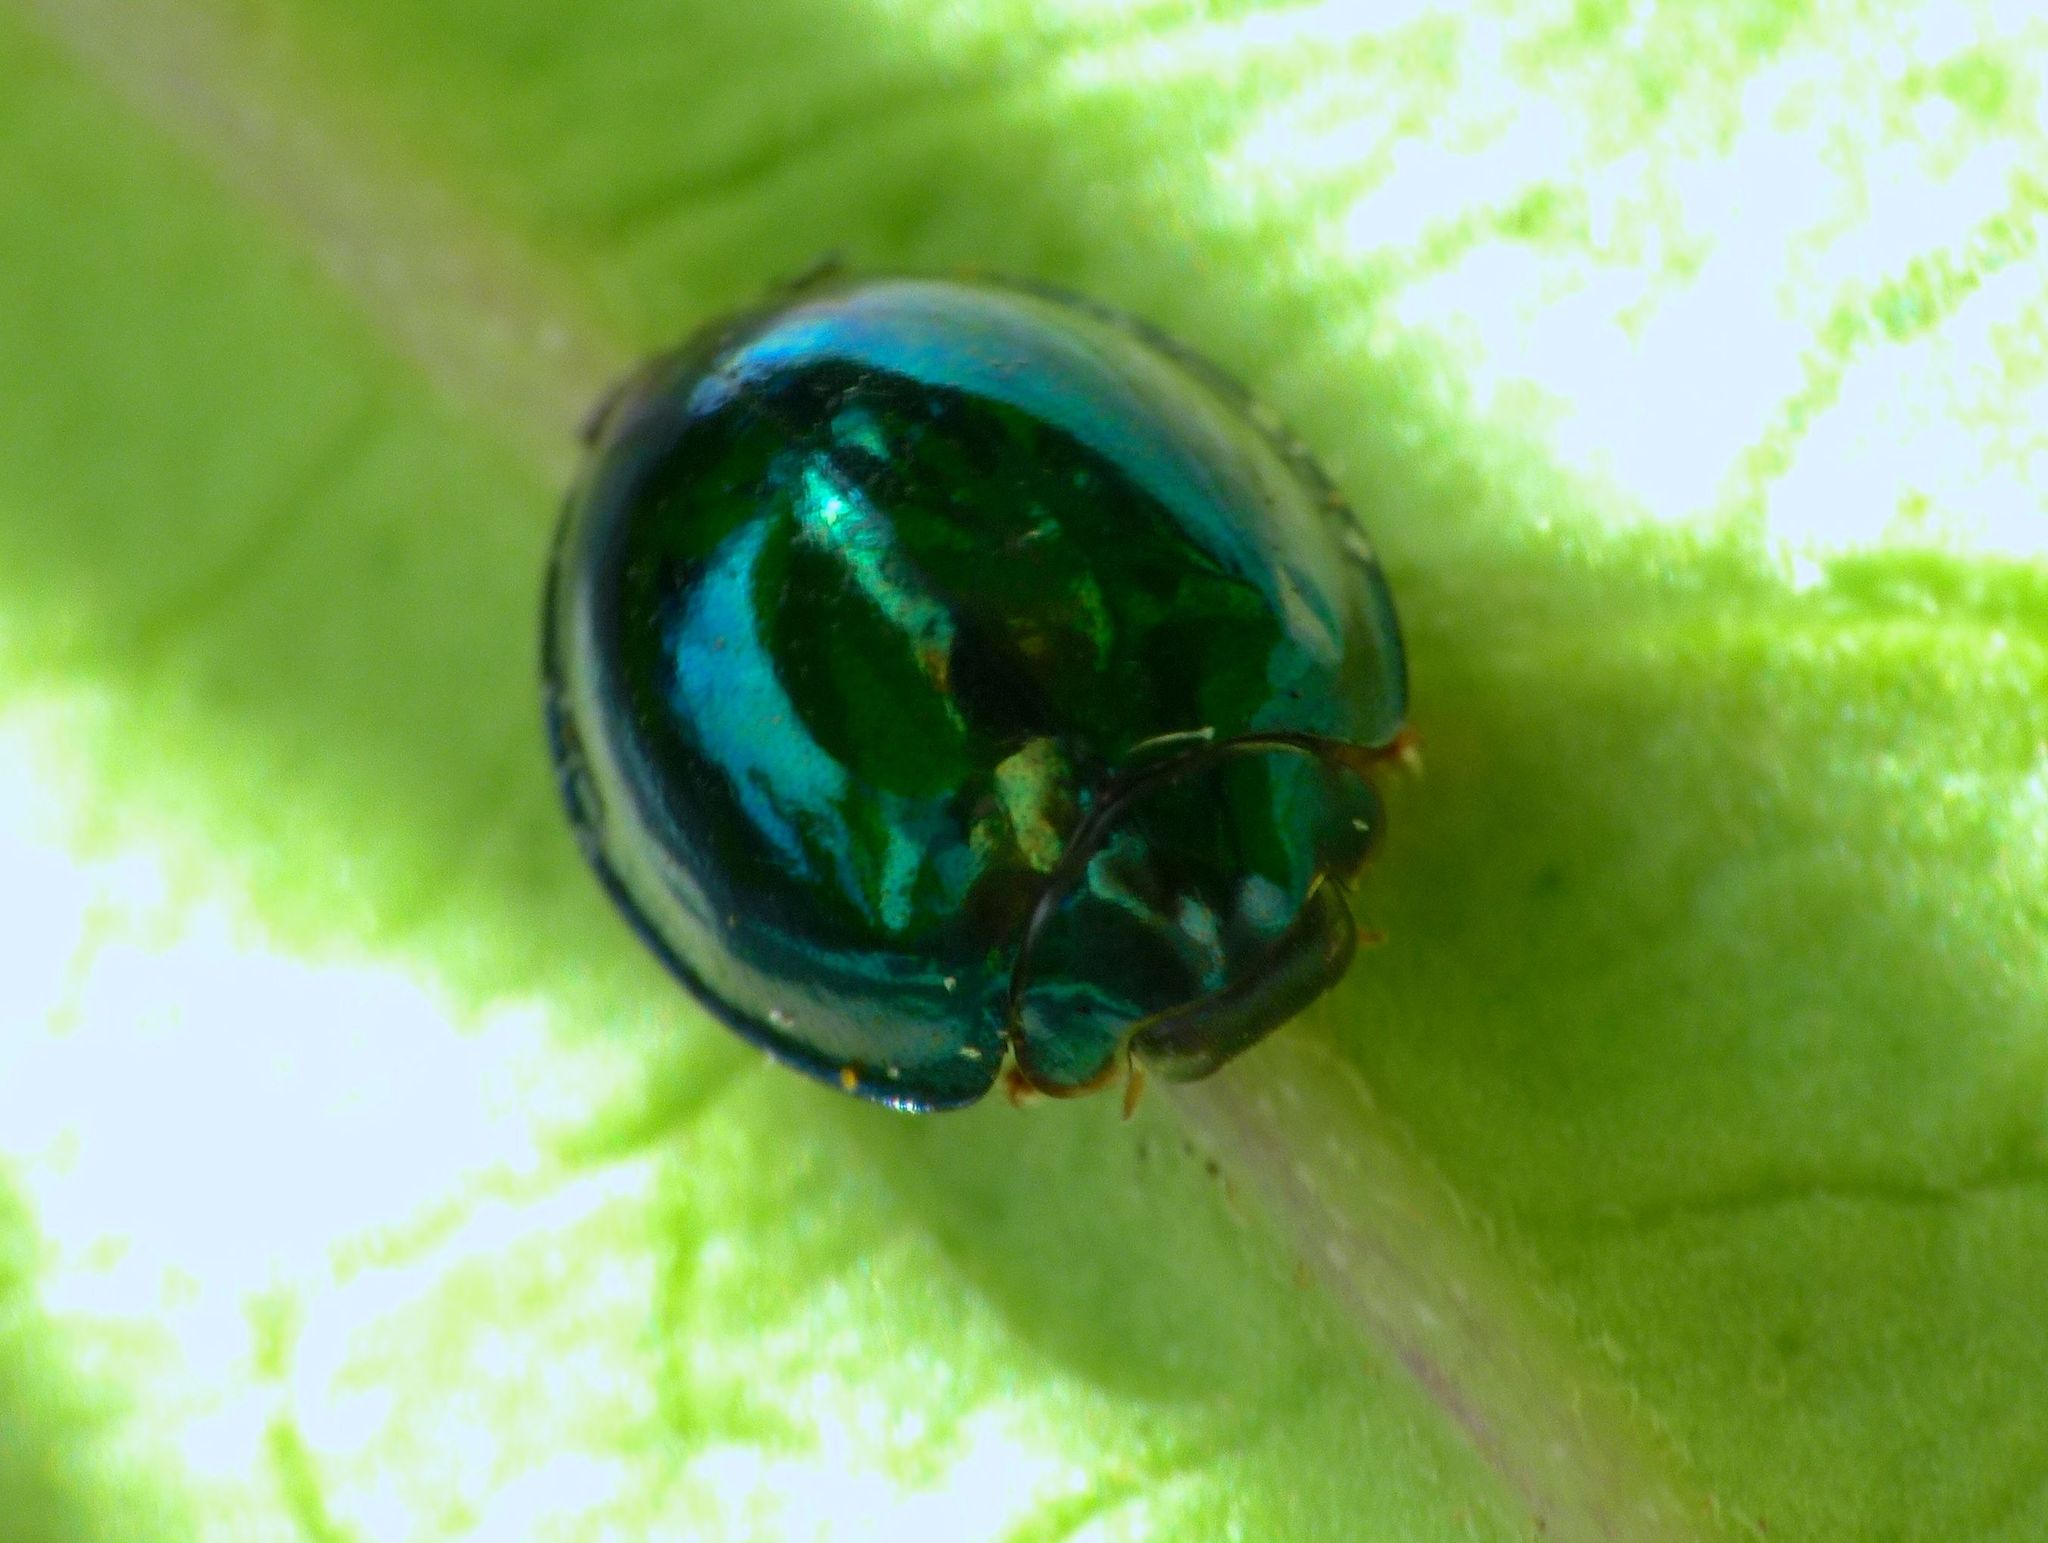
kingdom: Animalia
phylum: Arthropoda
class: Insecta
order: Coleoptera
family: Coccinellidae
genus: Halmus
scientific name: Halmus chalybeus
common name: Steel blue ladybird beetle
